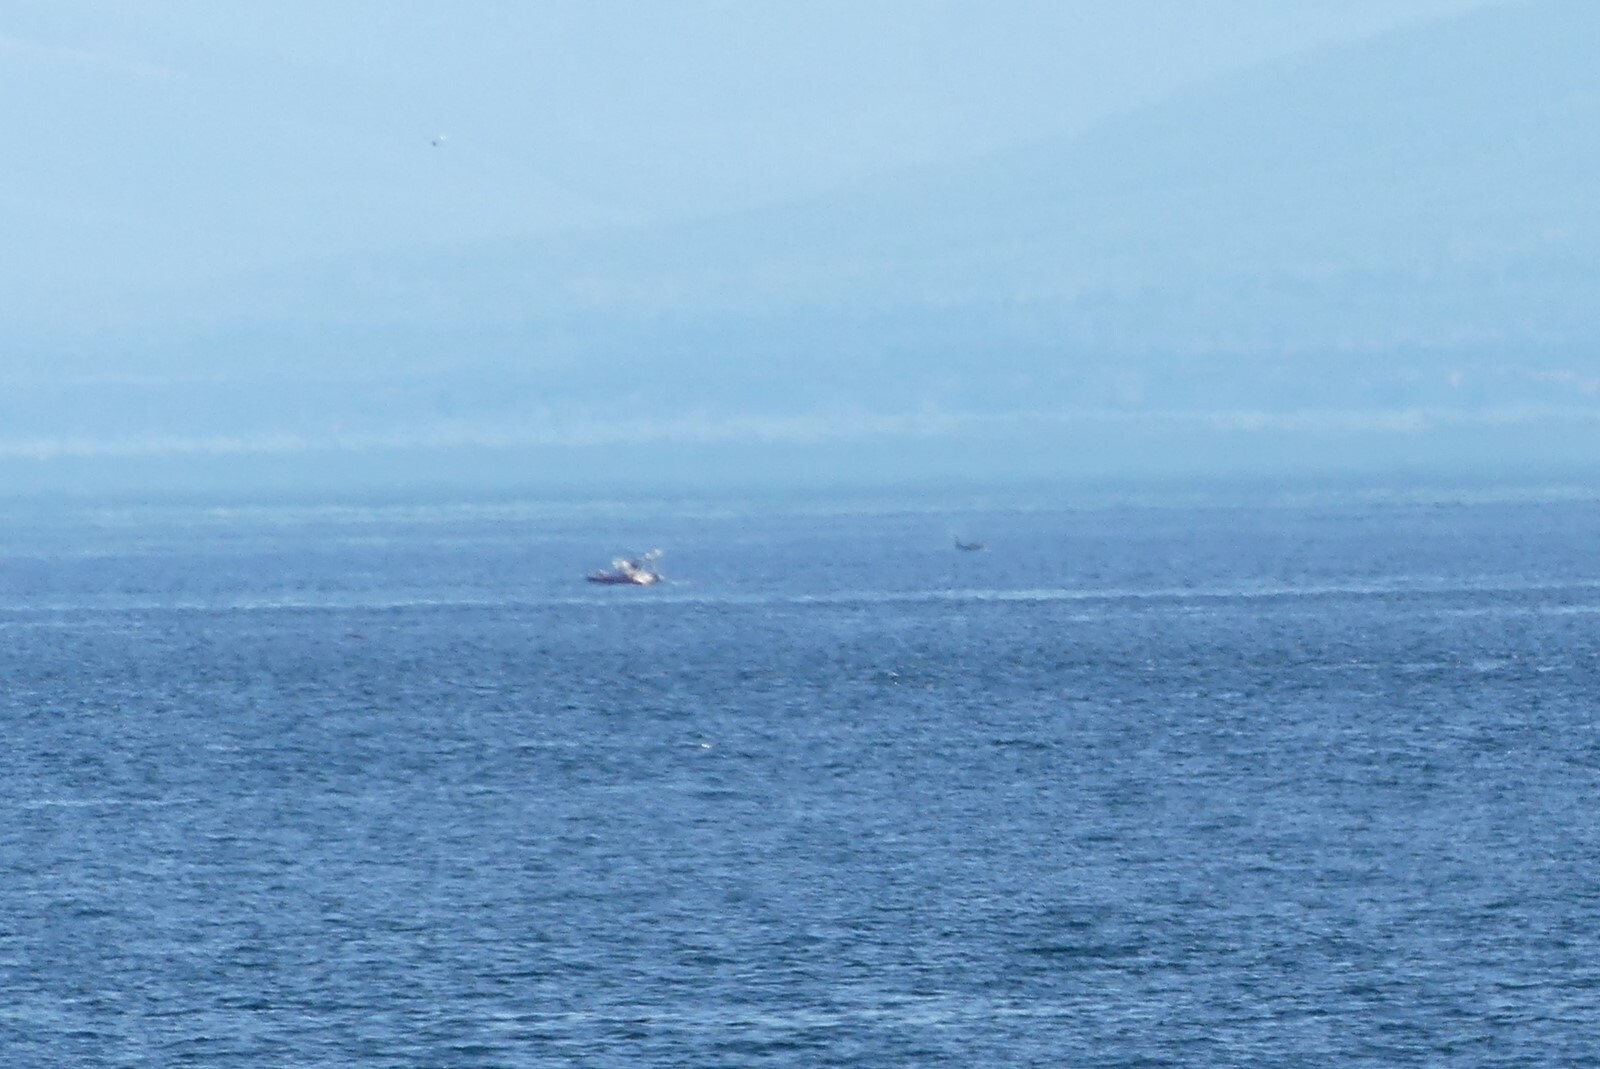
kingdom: Animalia
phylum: Chordata
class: Mammalia
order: Cetacea
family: Delphinidae
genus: Orcinus
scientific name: Orcinus orca
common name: Killer whale
